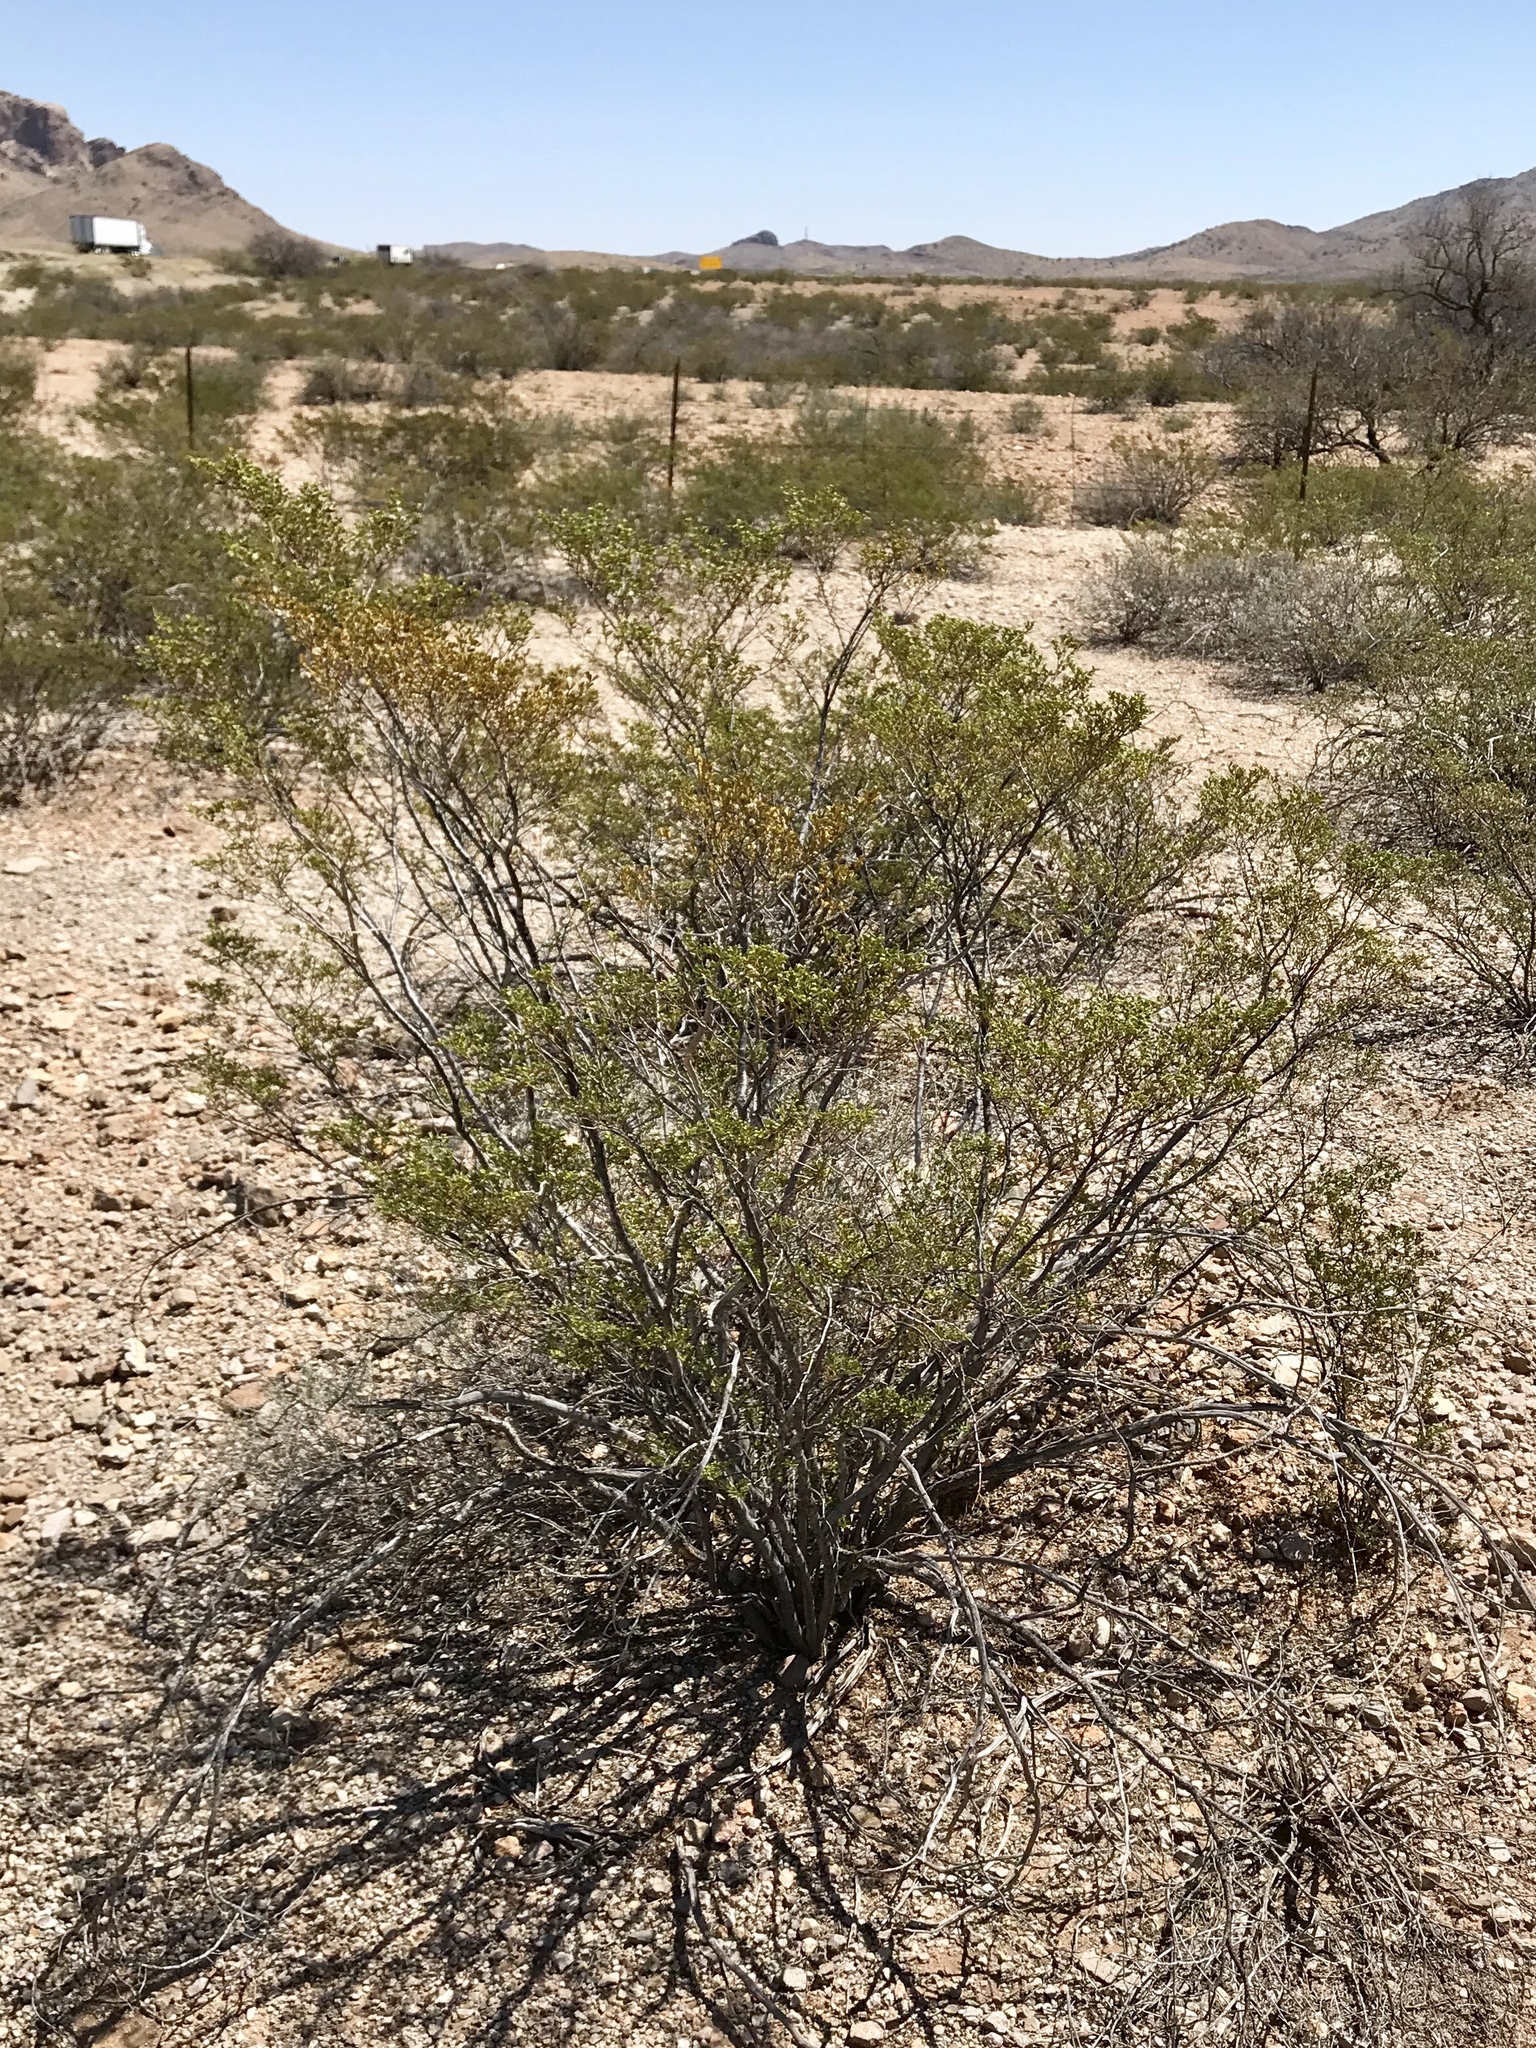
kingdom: Plantae
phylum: Tracheophyta
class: Magnoliopsida
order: Zygophyllales
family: Zygophyllaceae
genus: Larrea
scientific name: Larrea tridentata
